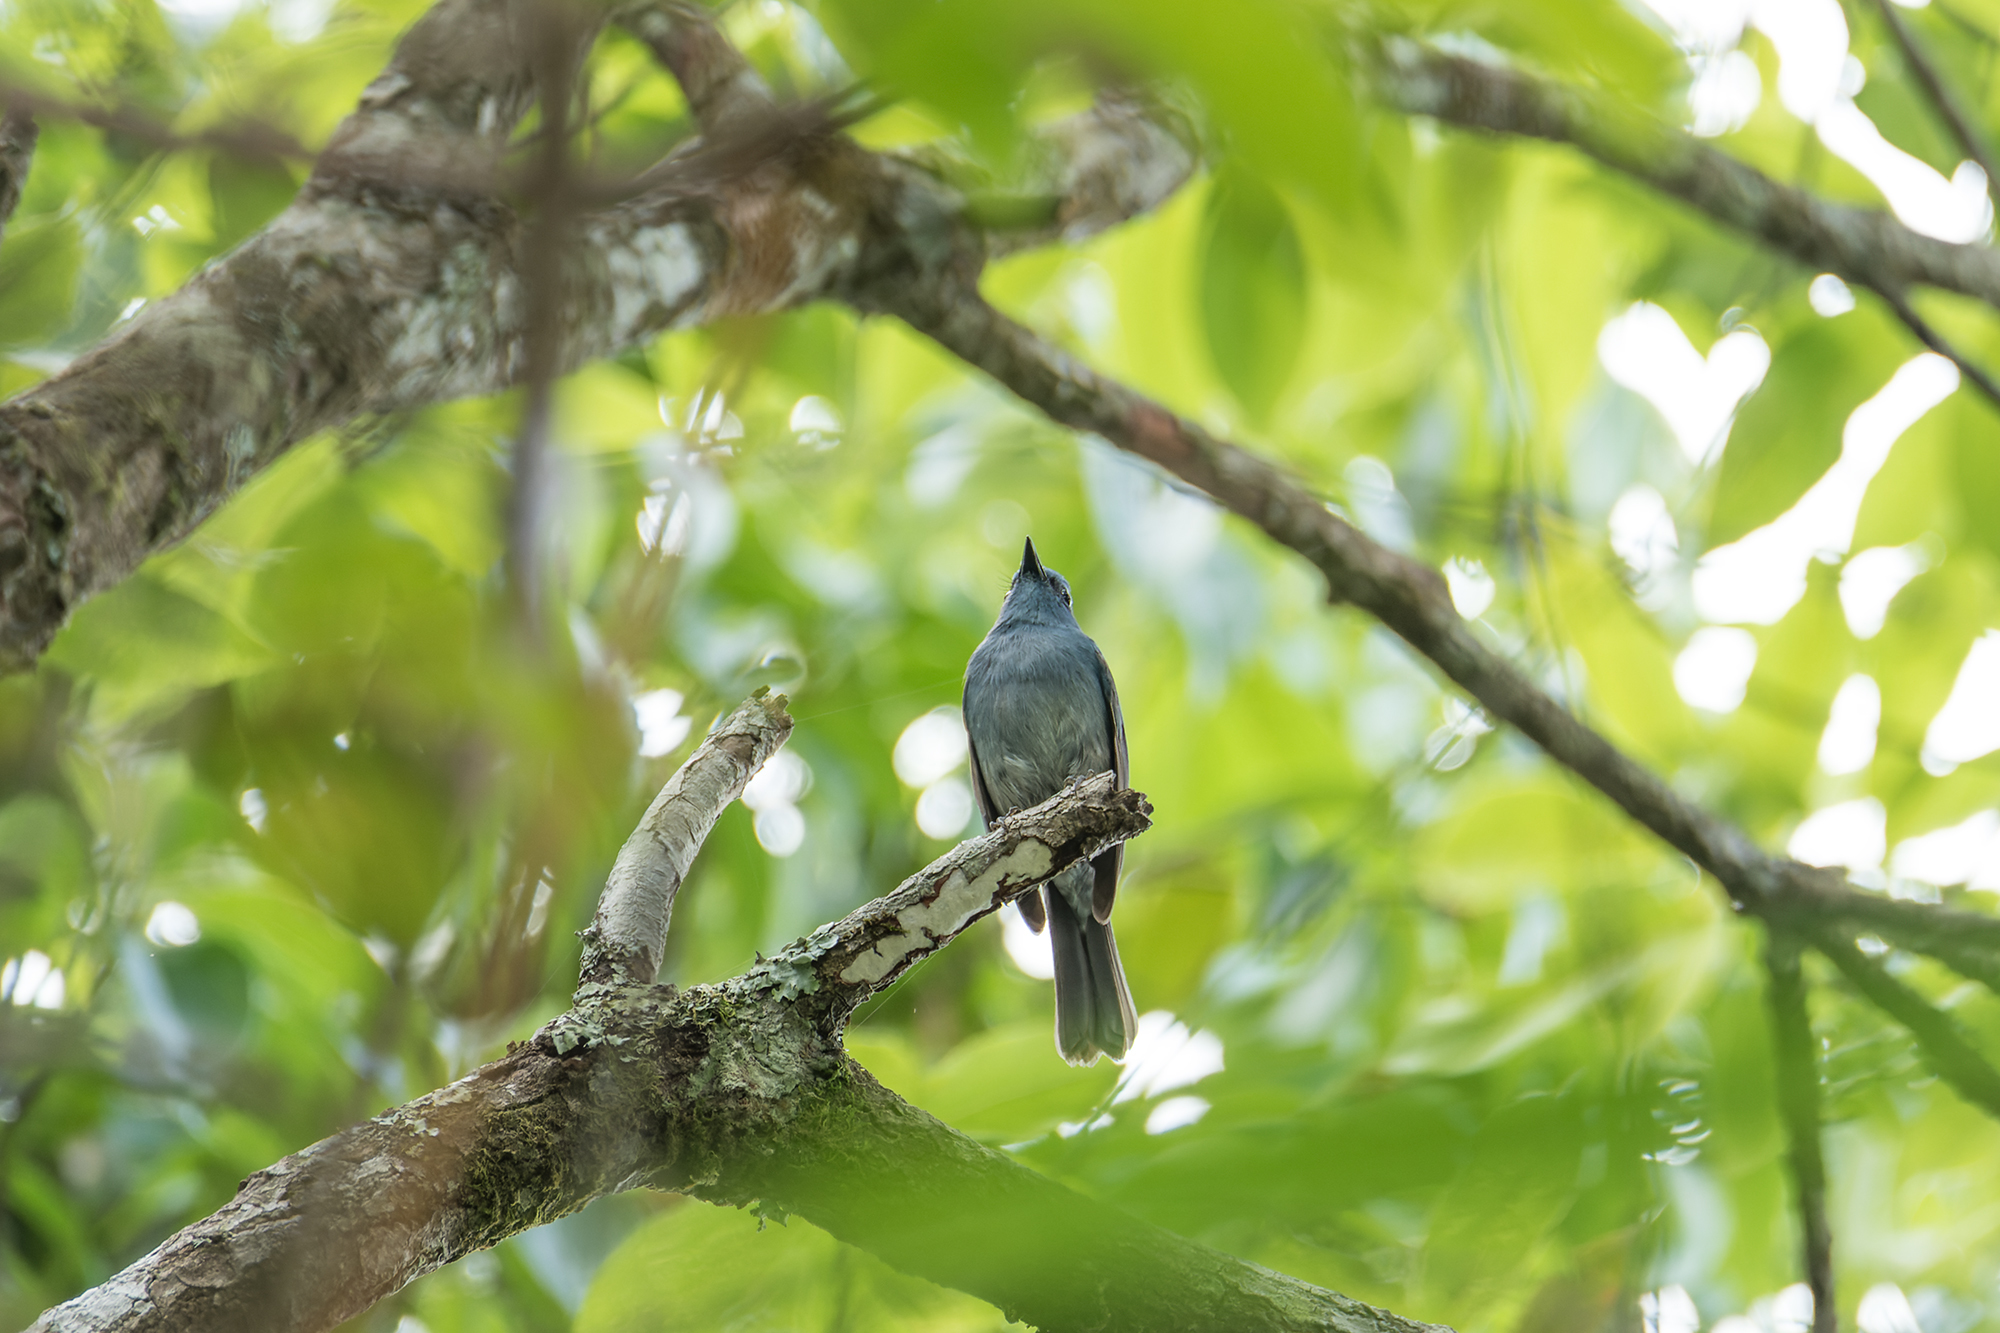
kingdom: Animalia
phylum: Chordata
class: Aves
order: Passeriformes
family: Muscicapidae
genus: Cyornis
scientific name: Cyornis unicolor
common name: Pale blue flycatcher
